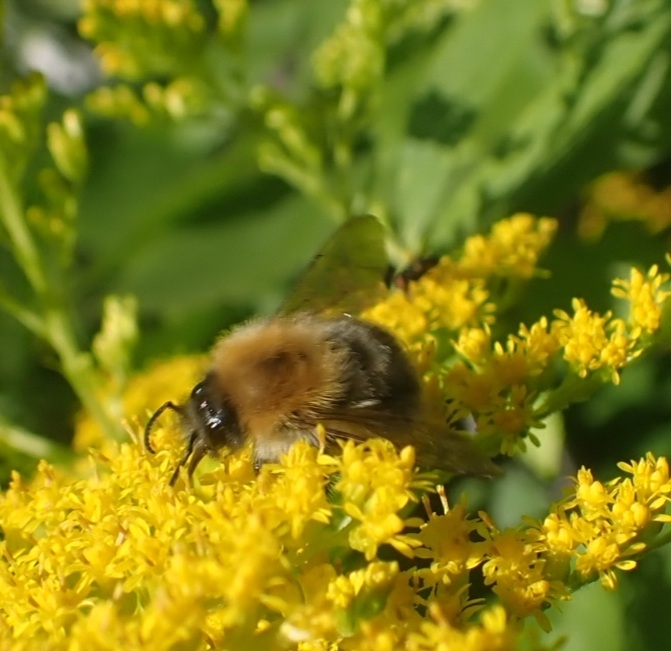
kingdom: Animalia
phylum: Arthropoda
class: Insecta
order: Hymenoptera
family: Apidae
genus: Bombus
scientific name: Bombus pascuorum
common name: Common carder bee
